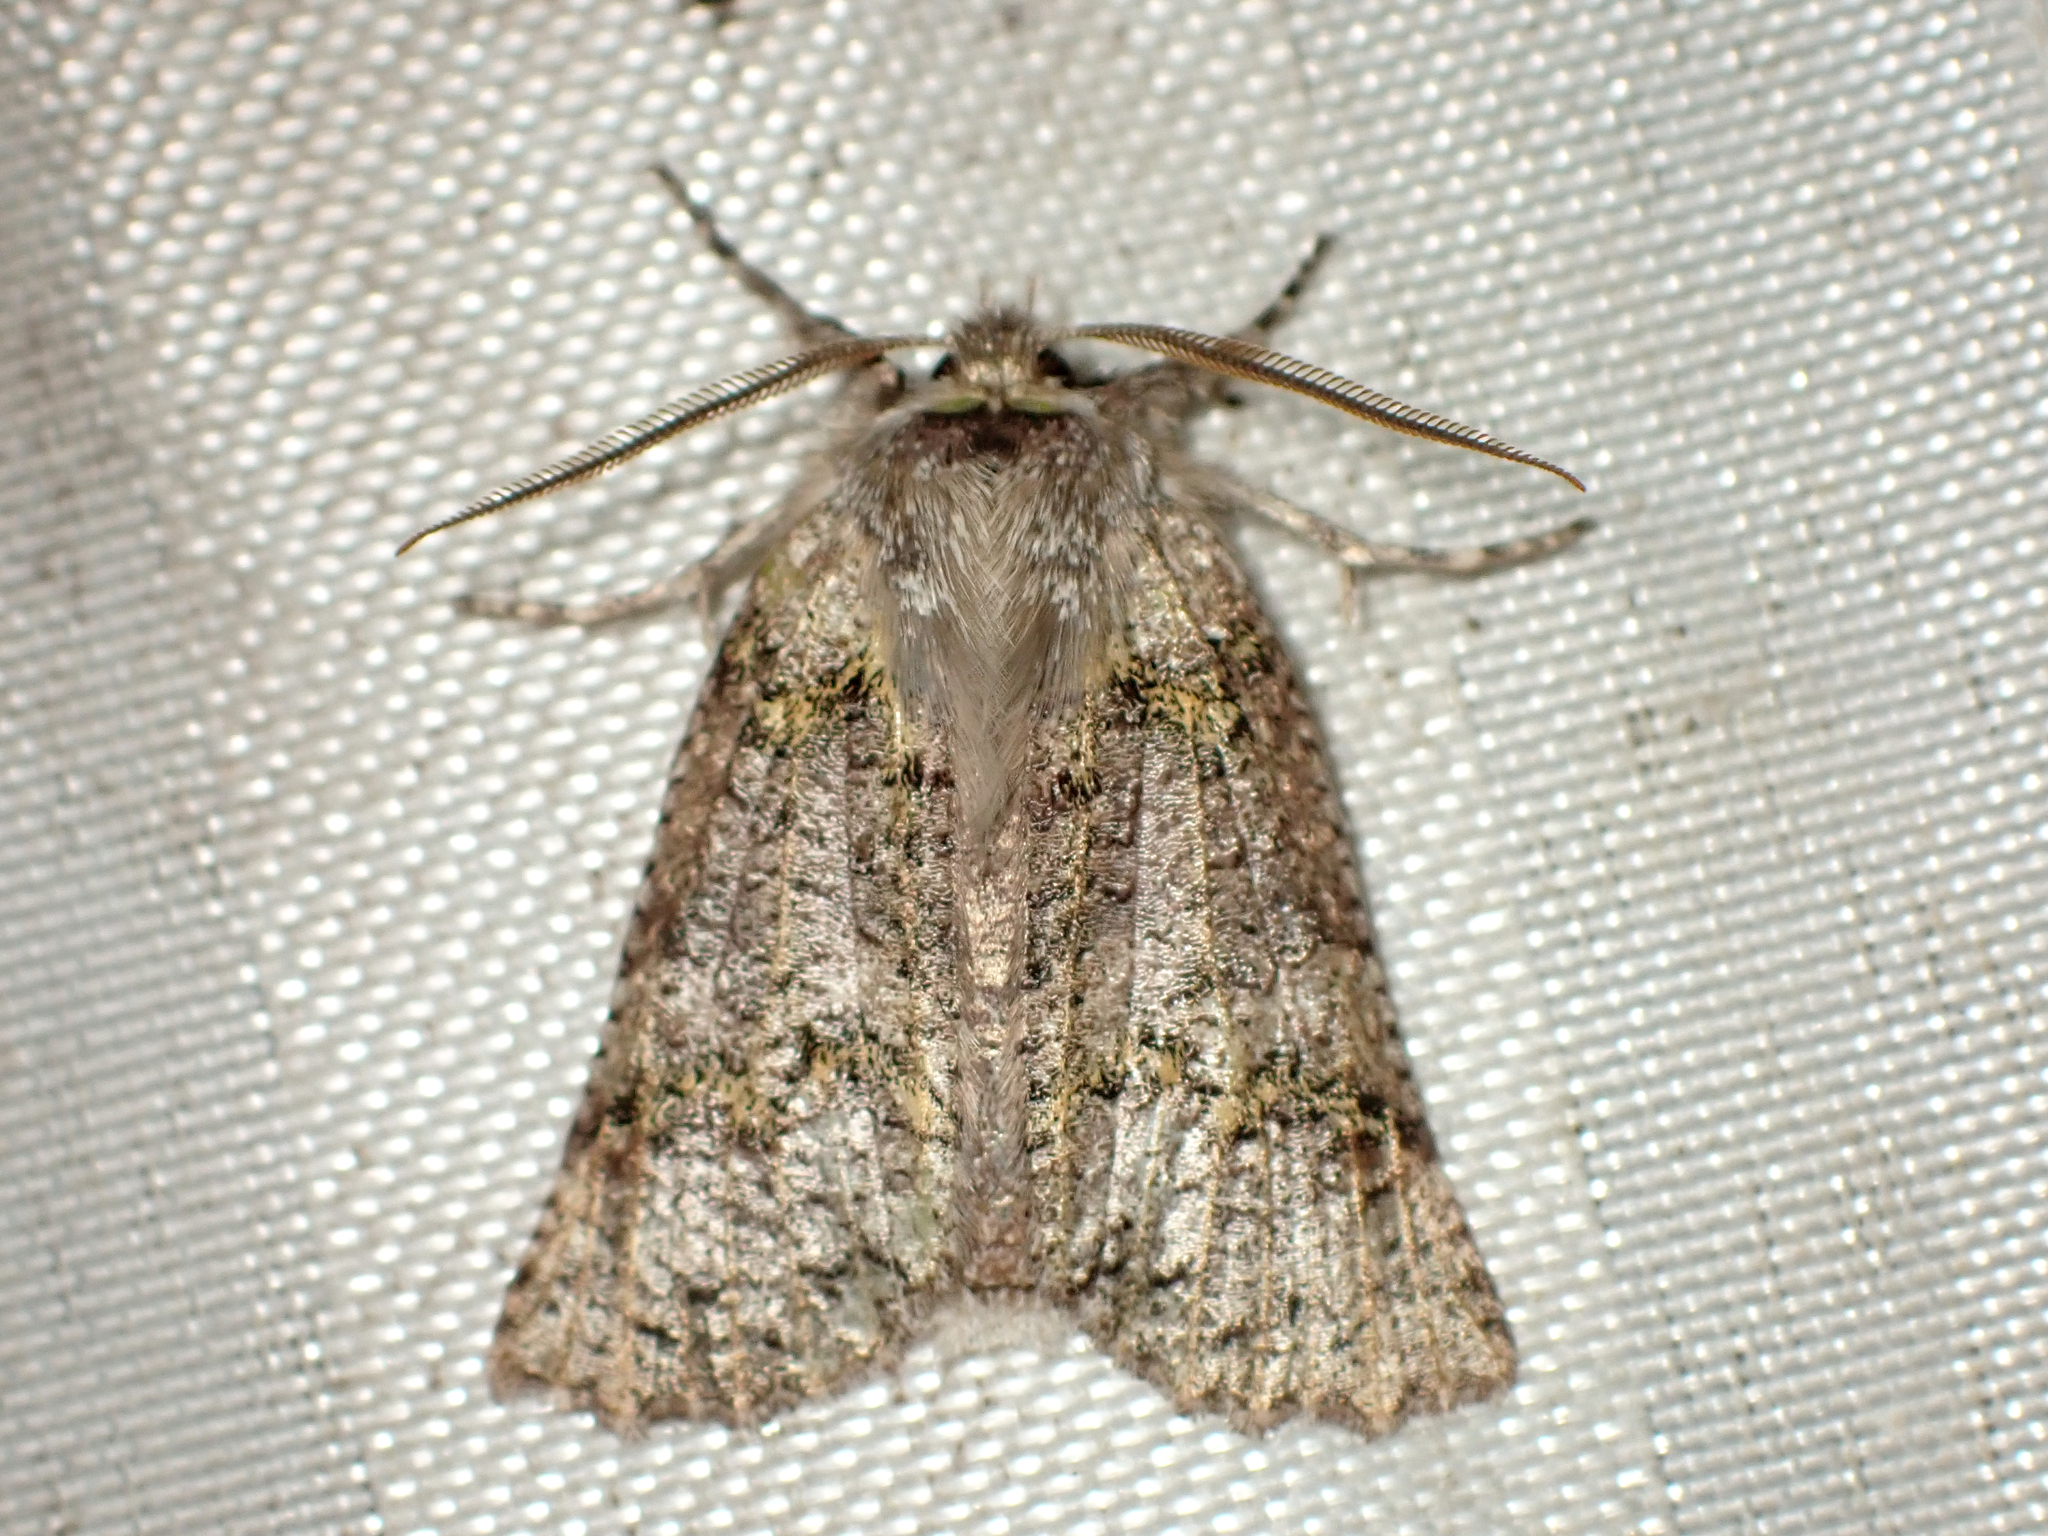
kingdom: Animalia
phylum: Arthropoda
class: Insecta
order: Lepidoptera
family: Geometridae
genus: Declana
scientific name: Declana floccosa
